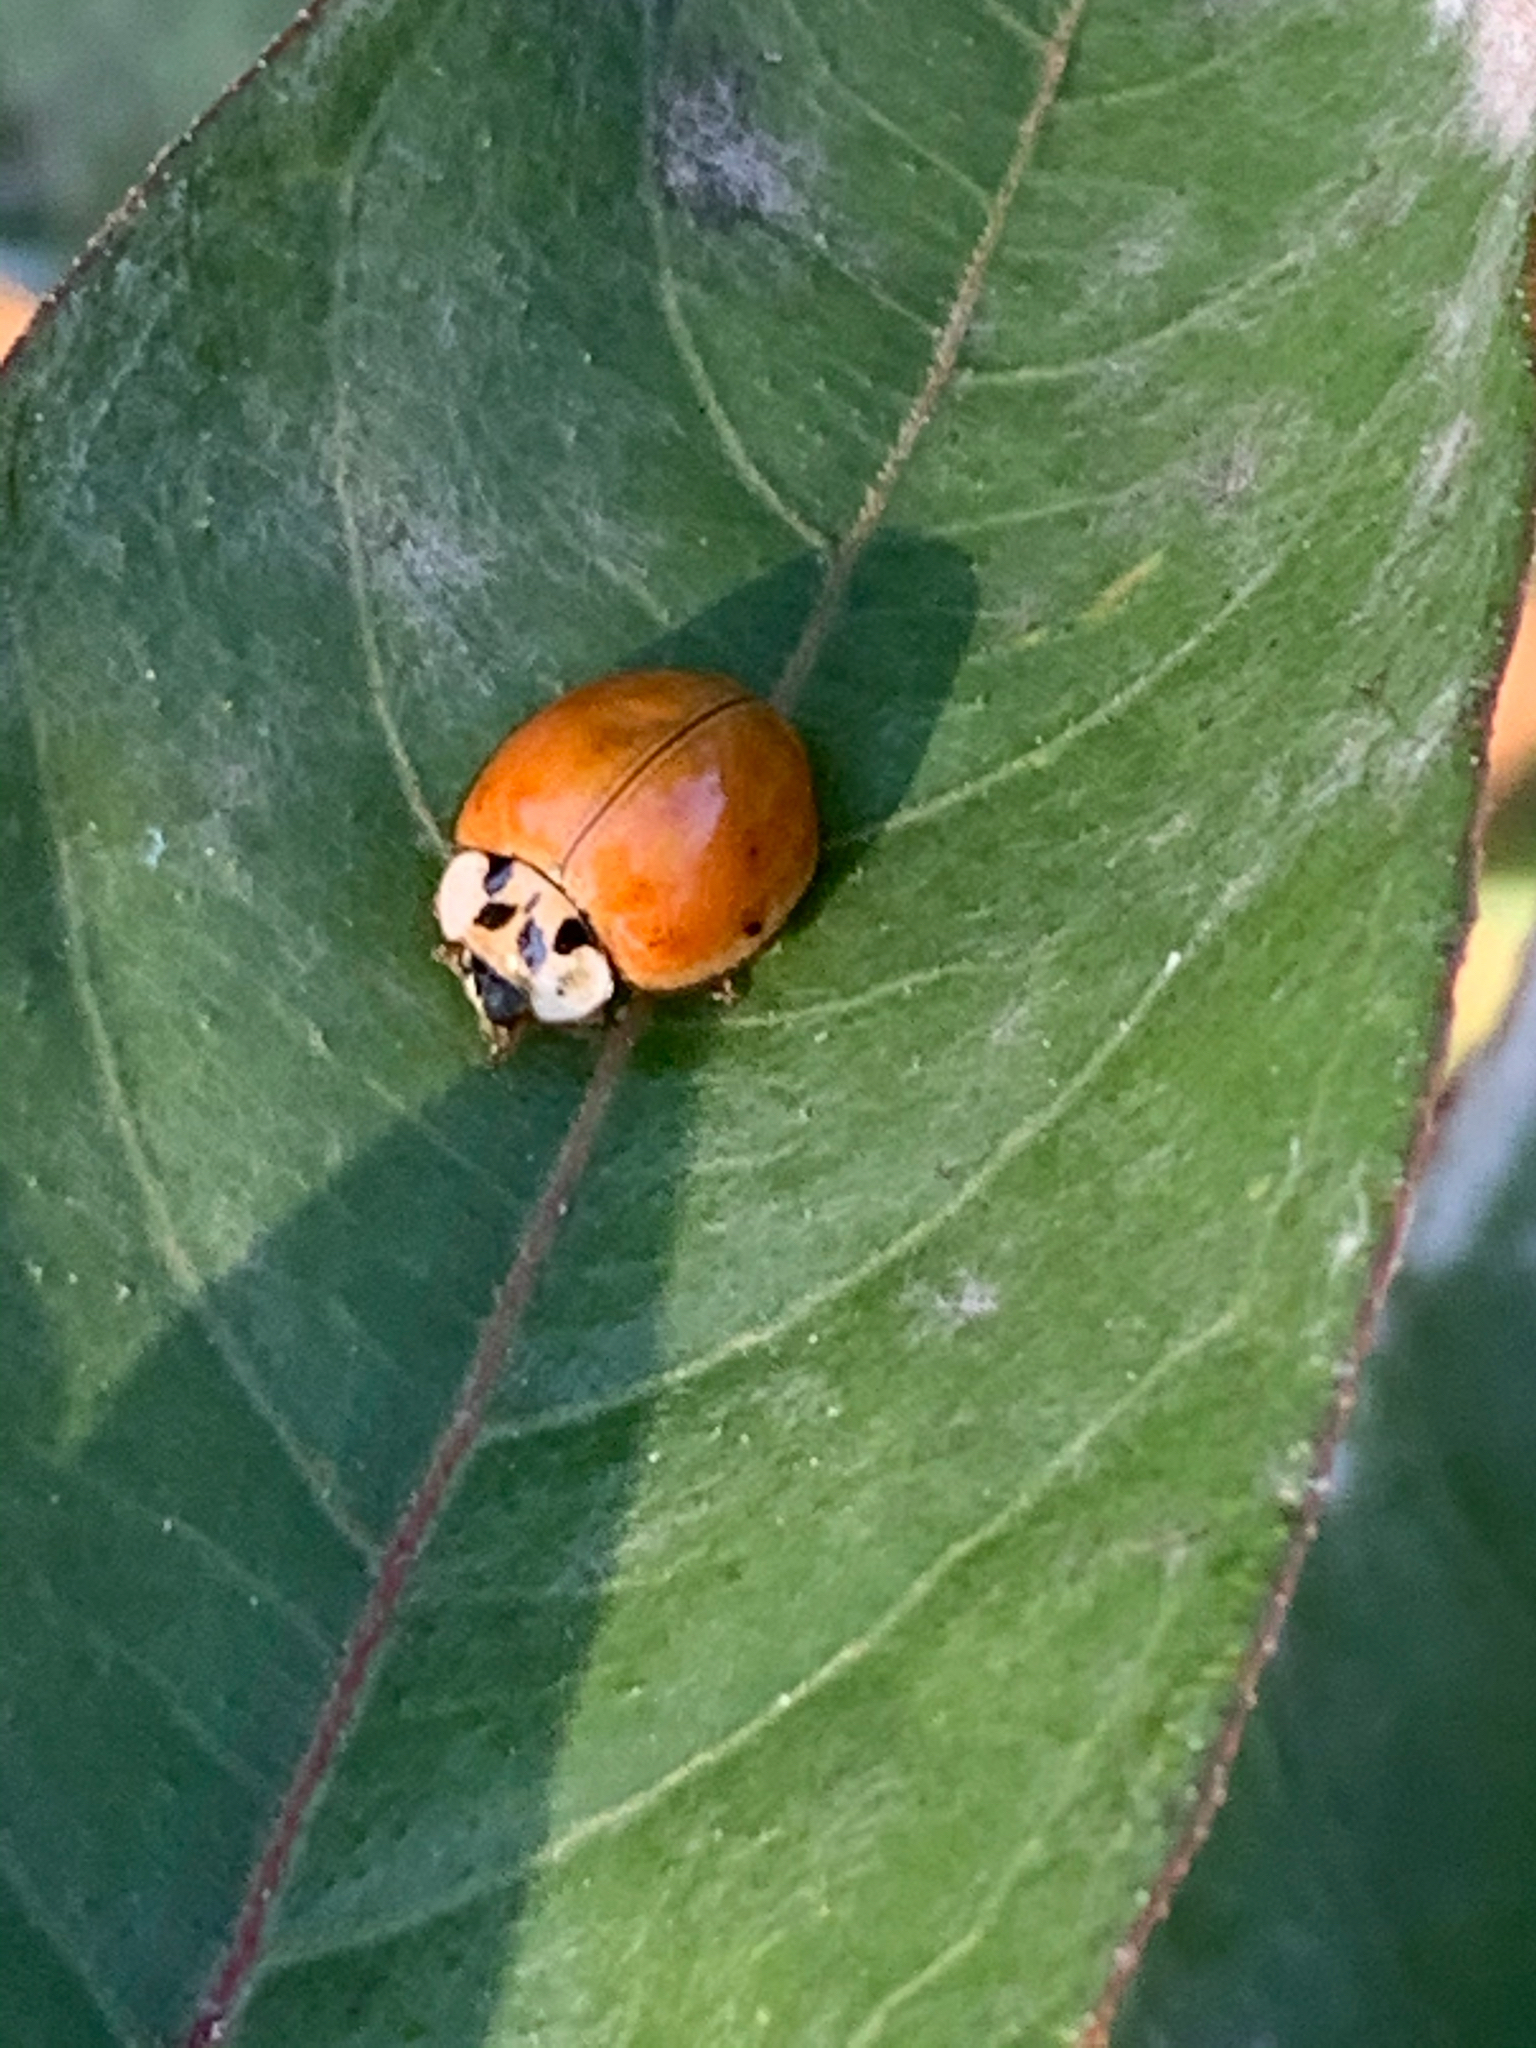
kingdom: Animalia
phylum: Arthropoda
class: Insecta
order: Coleoptera
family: Coccinellidae
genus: Harmonia
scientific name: Harmonia axyridis
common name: Harlequin ladybird
